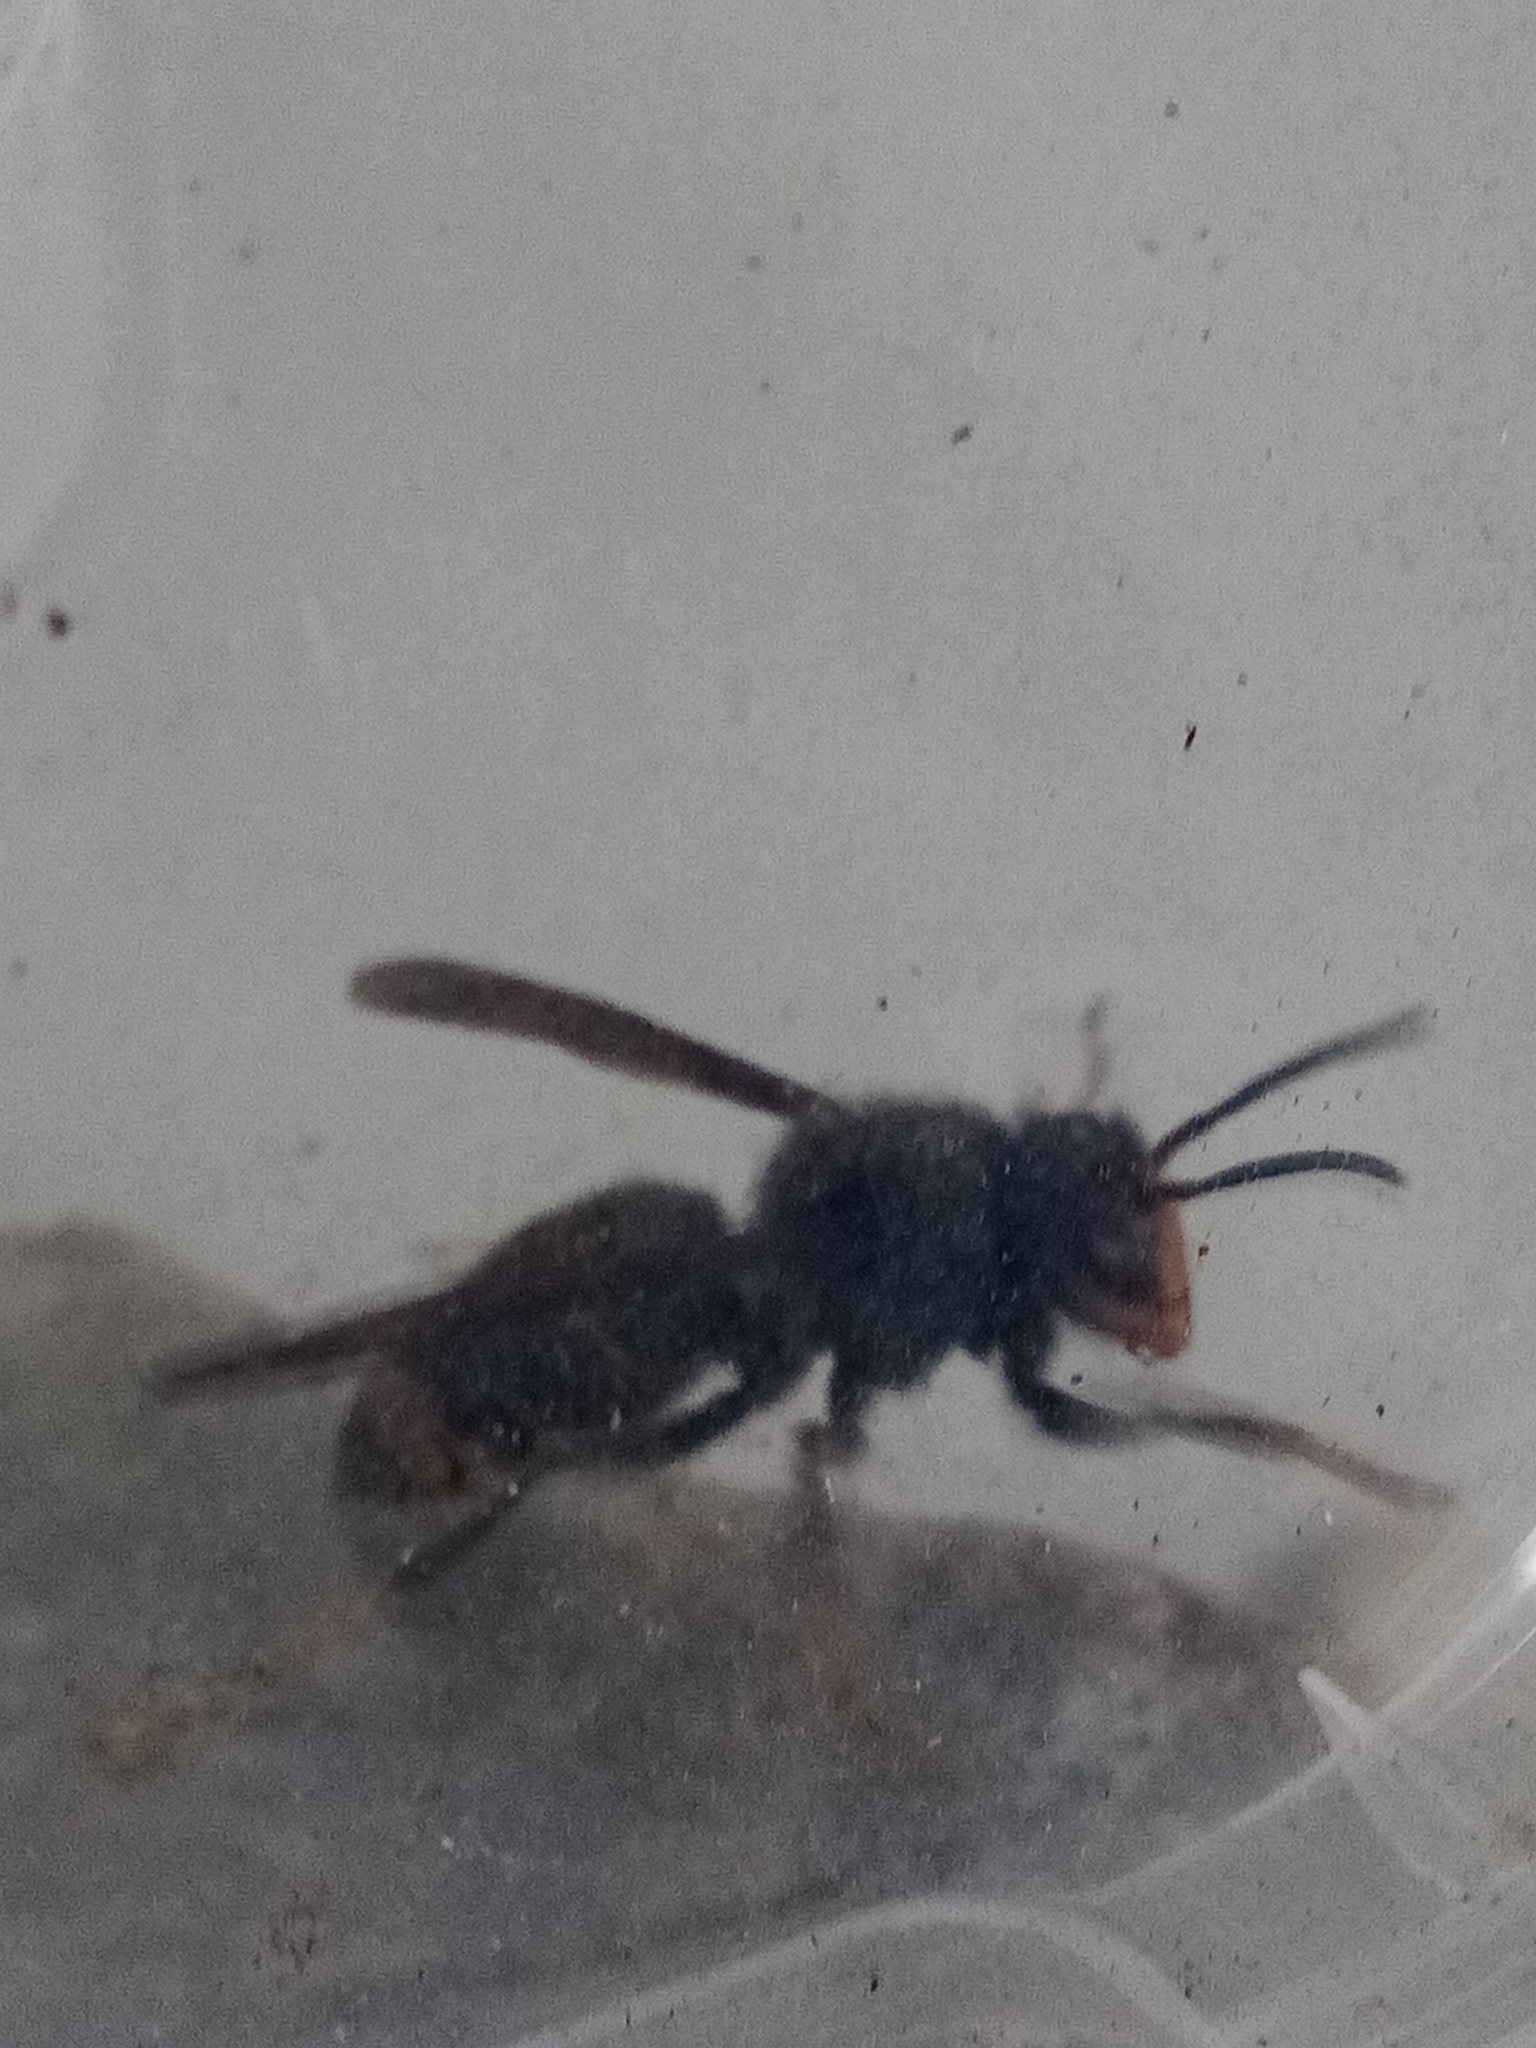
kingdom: Animalia
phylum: Arthropoda
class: Insecta
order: Hymenoptera
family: Vespidae
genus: Vespa
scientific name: Vespa velutina
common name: Asian hornet
